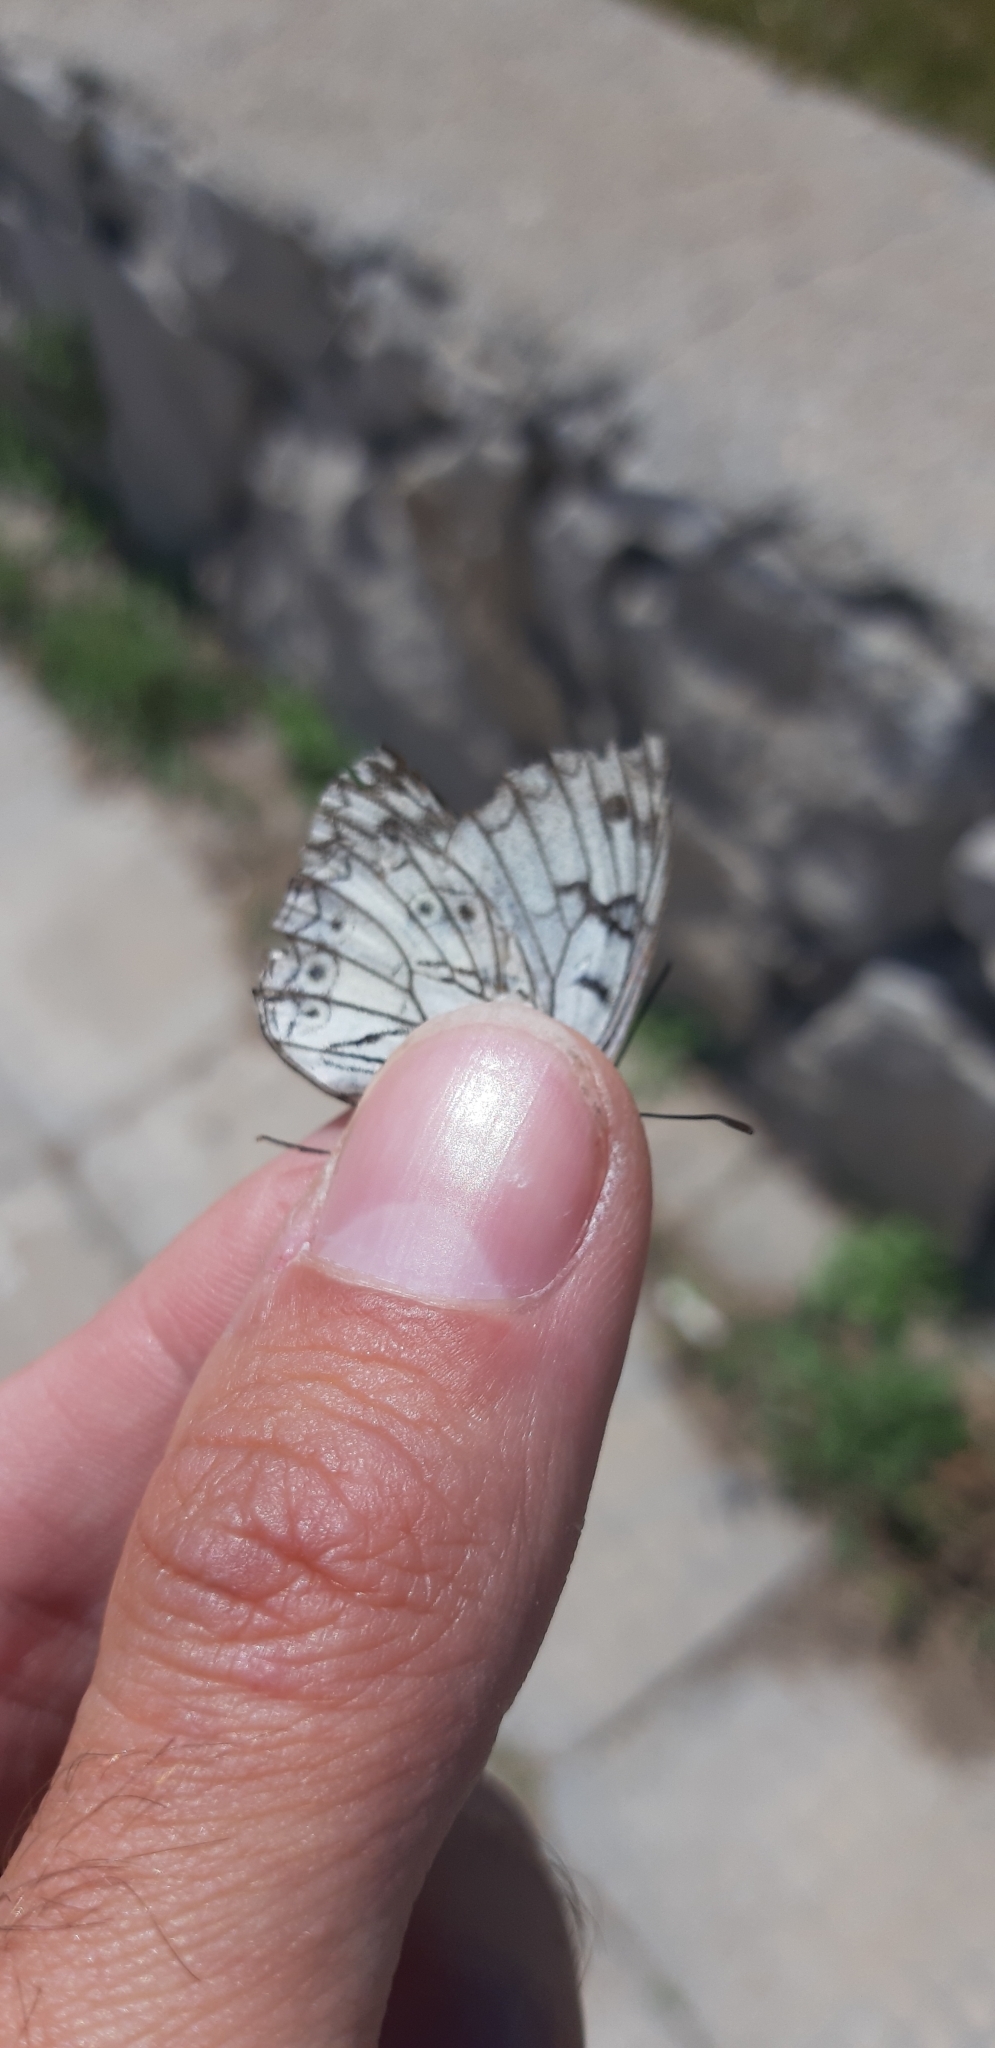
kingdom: Animalia
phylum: Arthropoda
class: Insecta
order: Lepidoptera
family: Nymphalidae
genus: Melanargia
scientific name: Melanargia arge
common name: Italian marbled white
